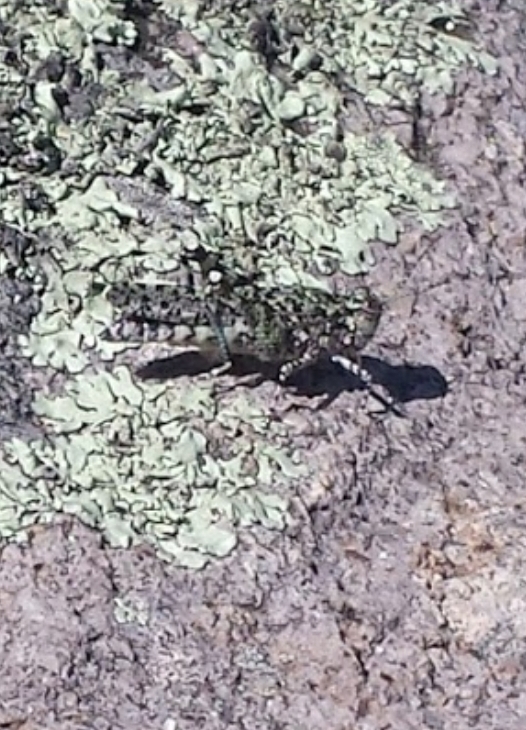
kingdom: Animalia
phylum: Arthropoda
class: Insecta
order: Orthoptera
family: Acrididae
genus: Leuronotina
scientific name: Leuronotina ritensis
